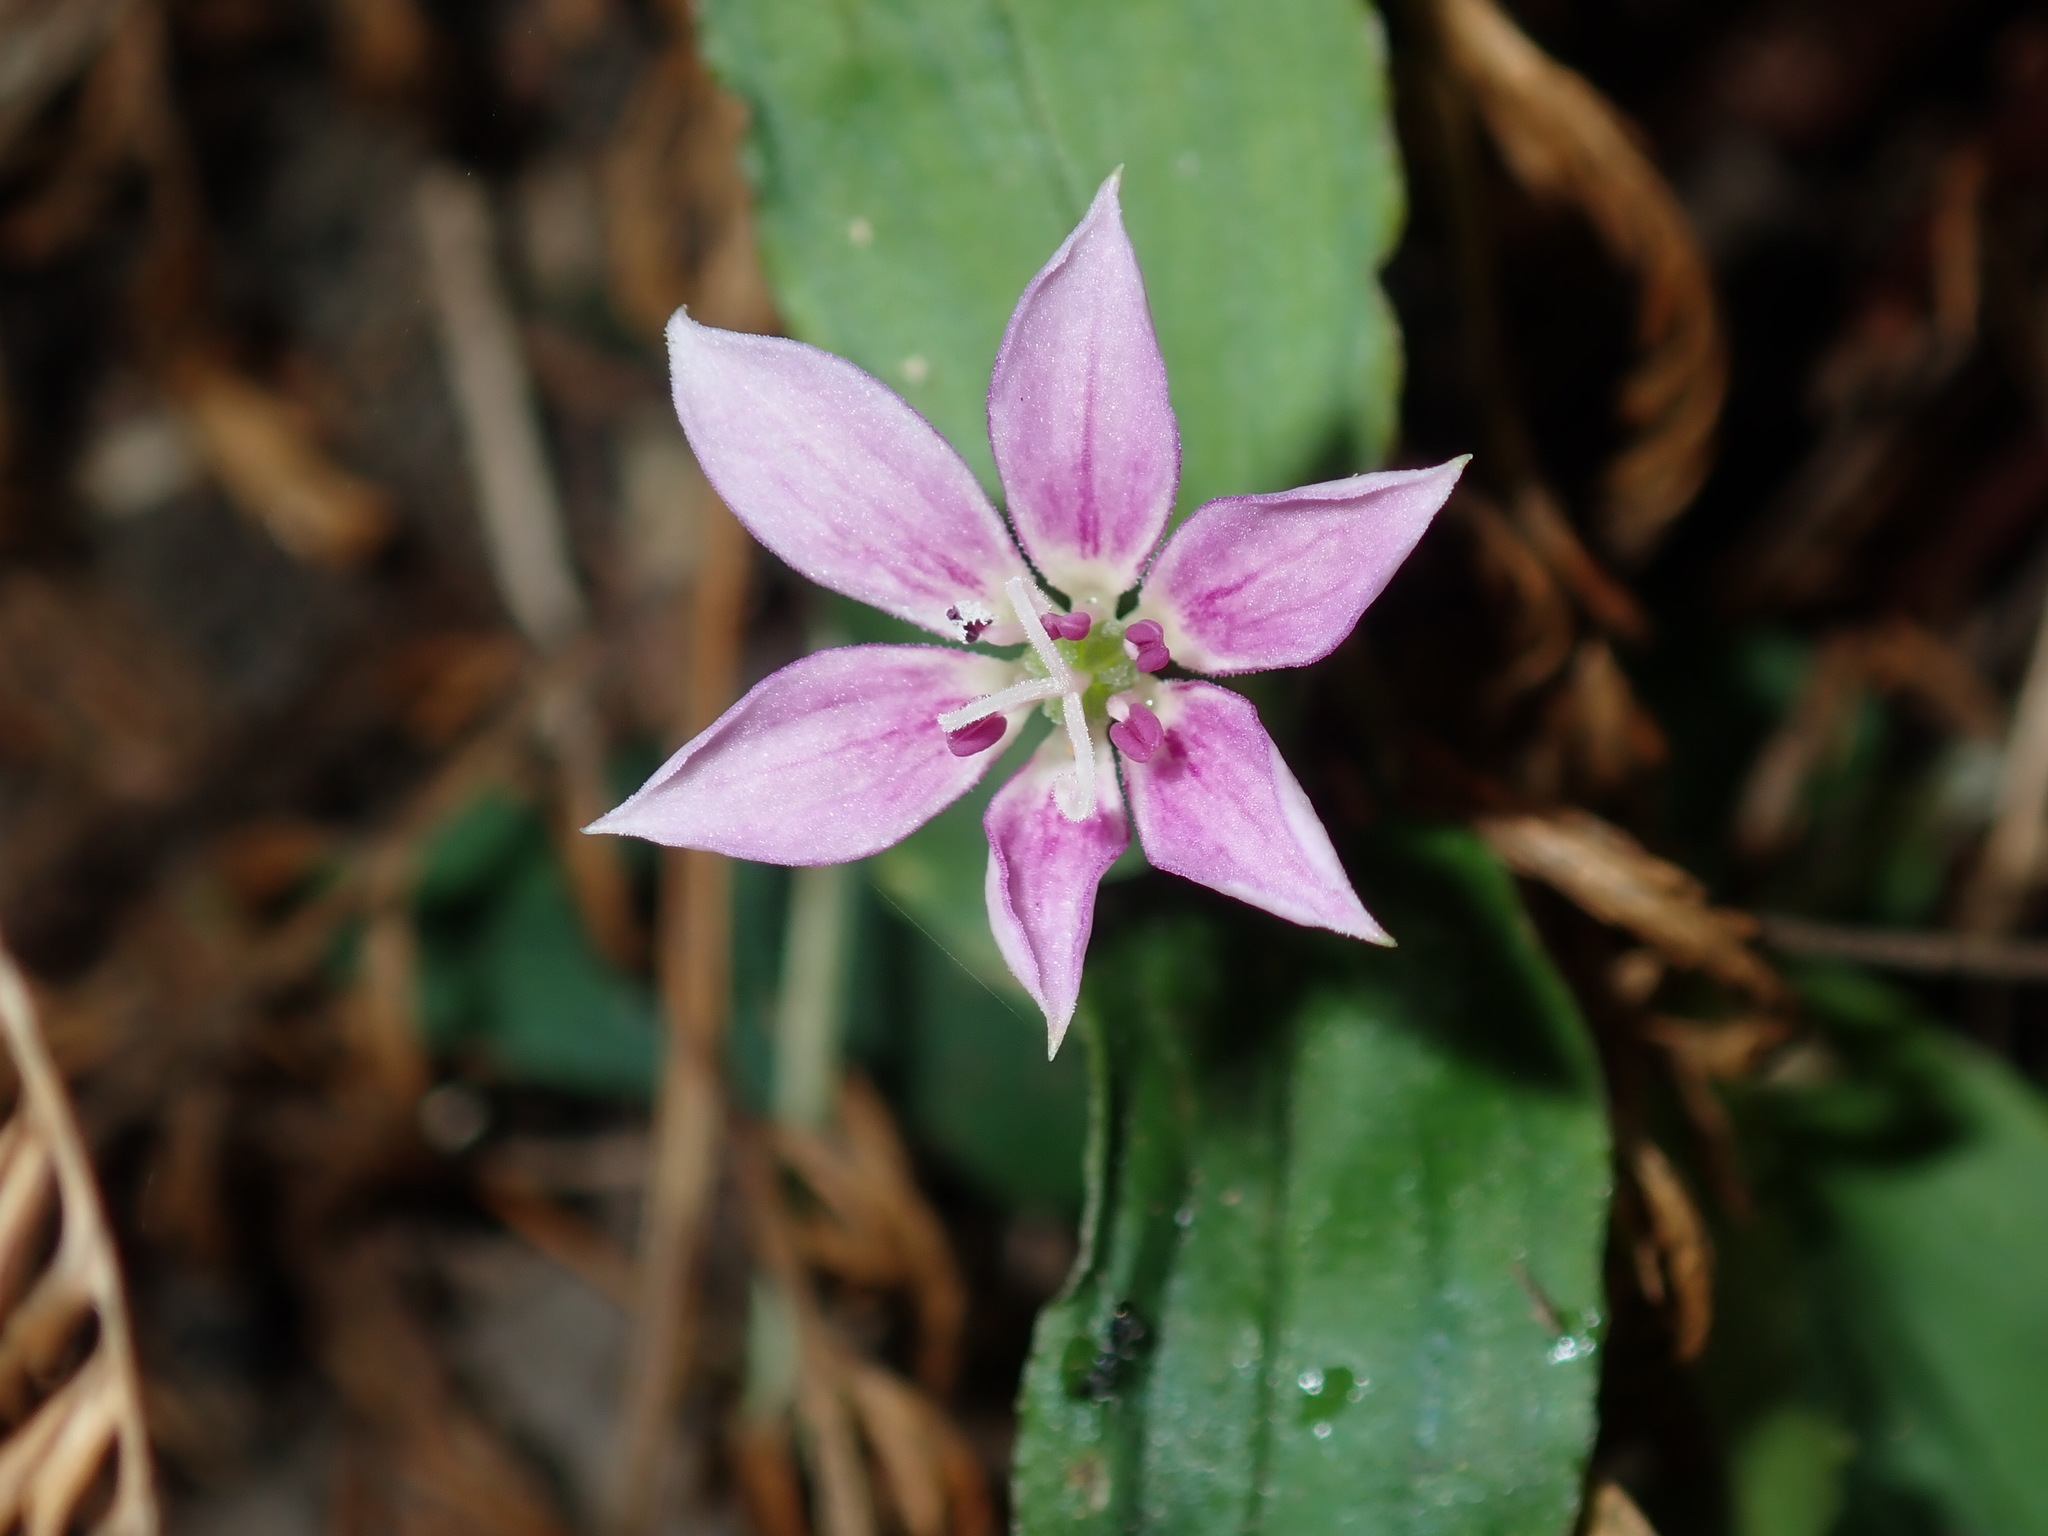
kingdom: Plantae
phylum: Tracheophyta
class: Liliopsida
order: Liliales
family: Colchicaceae
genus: Schelhammera
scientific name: Schelhammera undulata
